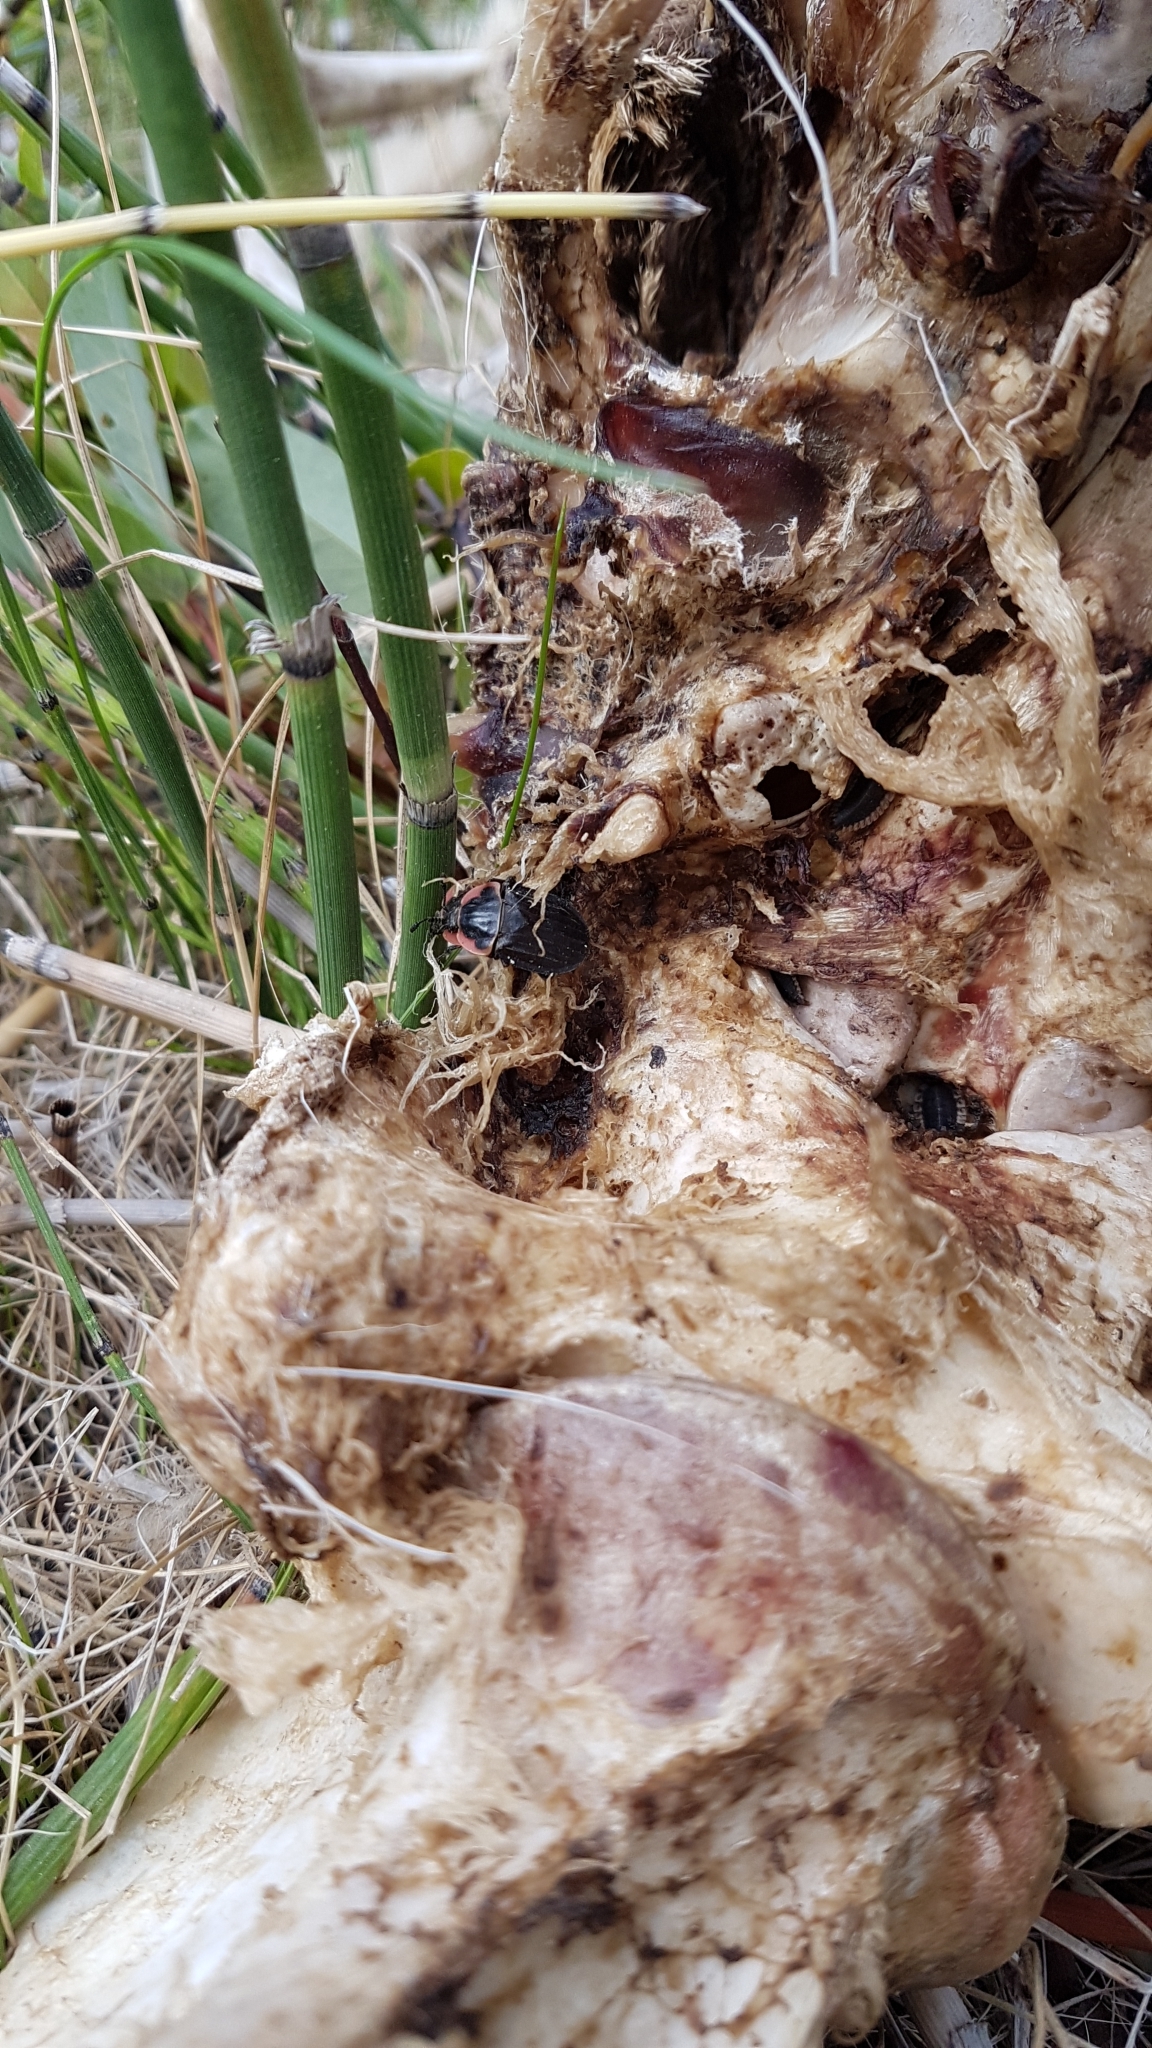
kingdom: Animalia
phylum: Arthropoda
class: Insecta
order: Coleoptera
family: Staphylinidae
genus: Oiceoptoma
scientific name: Oiceoptoma noveboracense
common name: Margined carrion beetle
